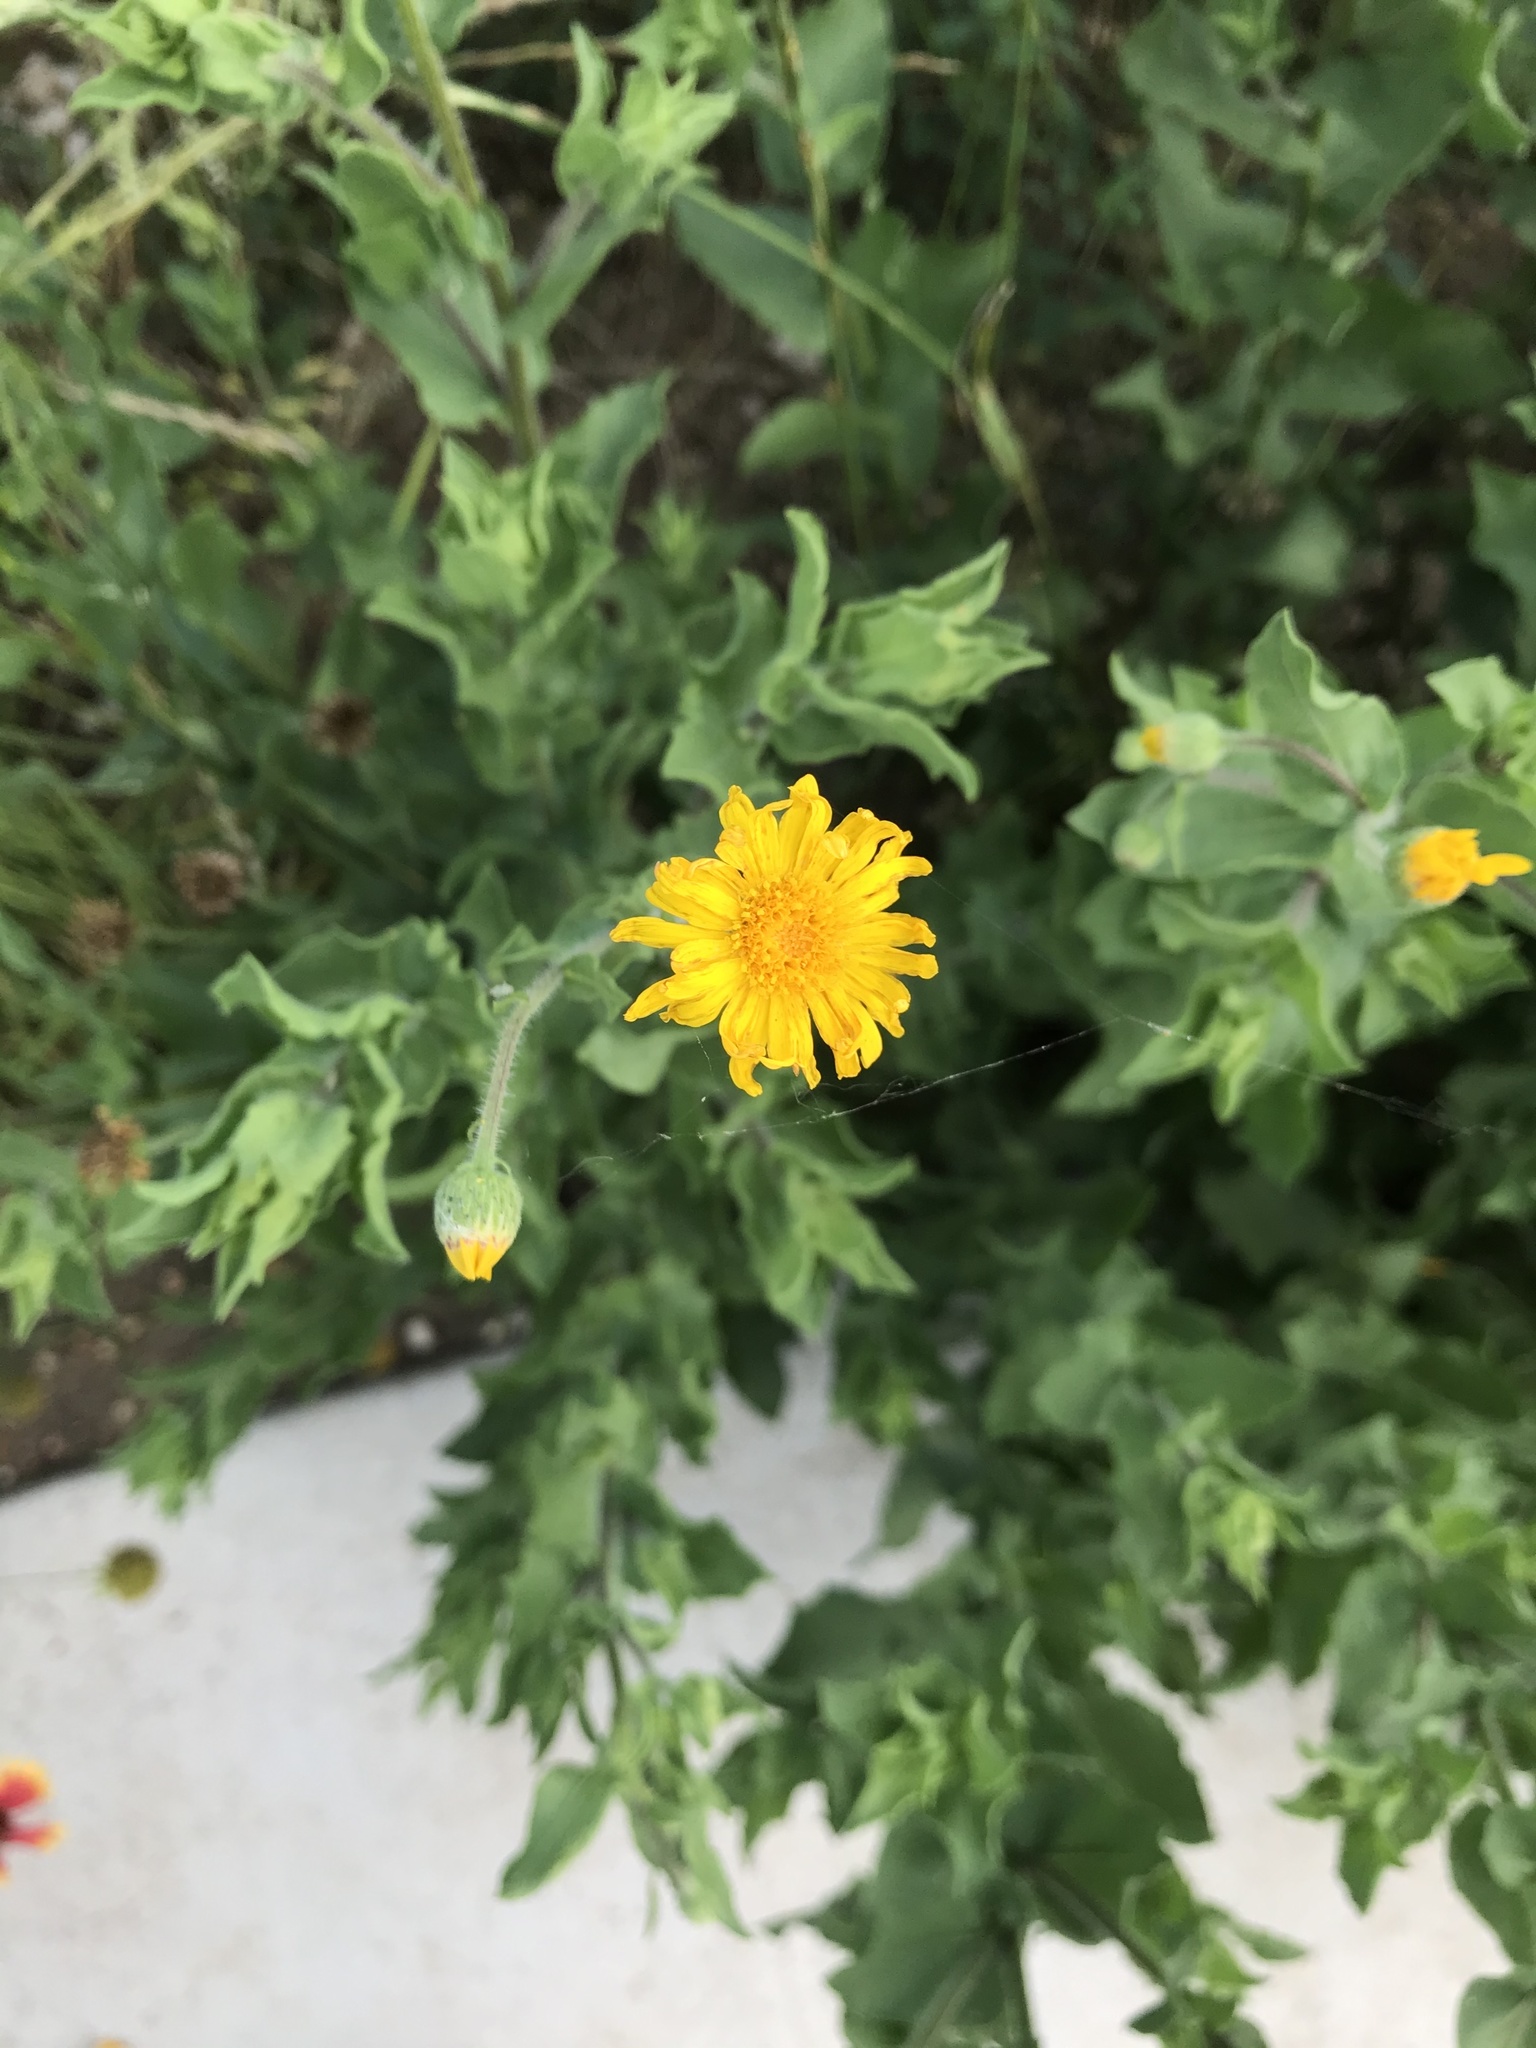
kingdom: Plantae
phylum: Tracheophyta
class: Magnoliopsida
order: Asterales
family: Asteraceae
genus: Heterotheca
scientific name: Heterotheca subaxillaris
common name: Camphorweed
